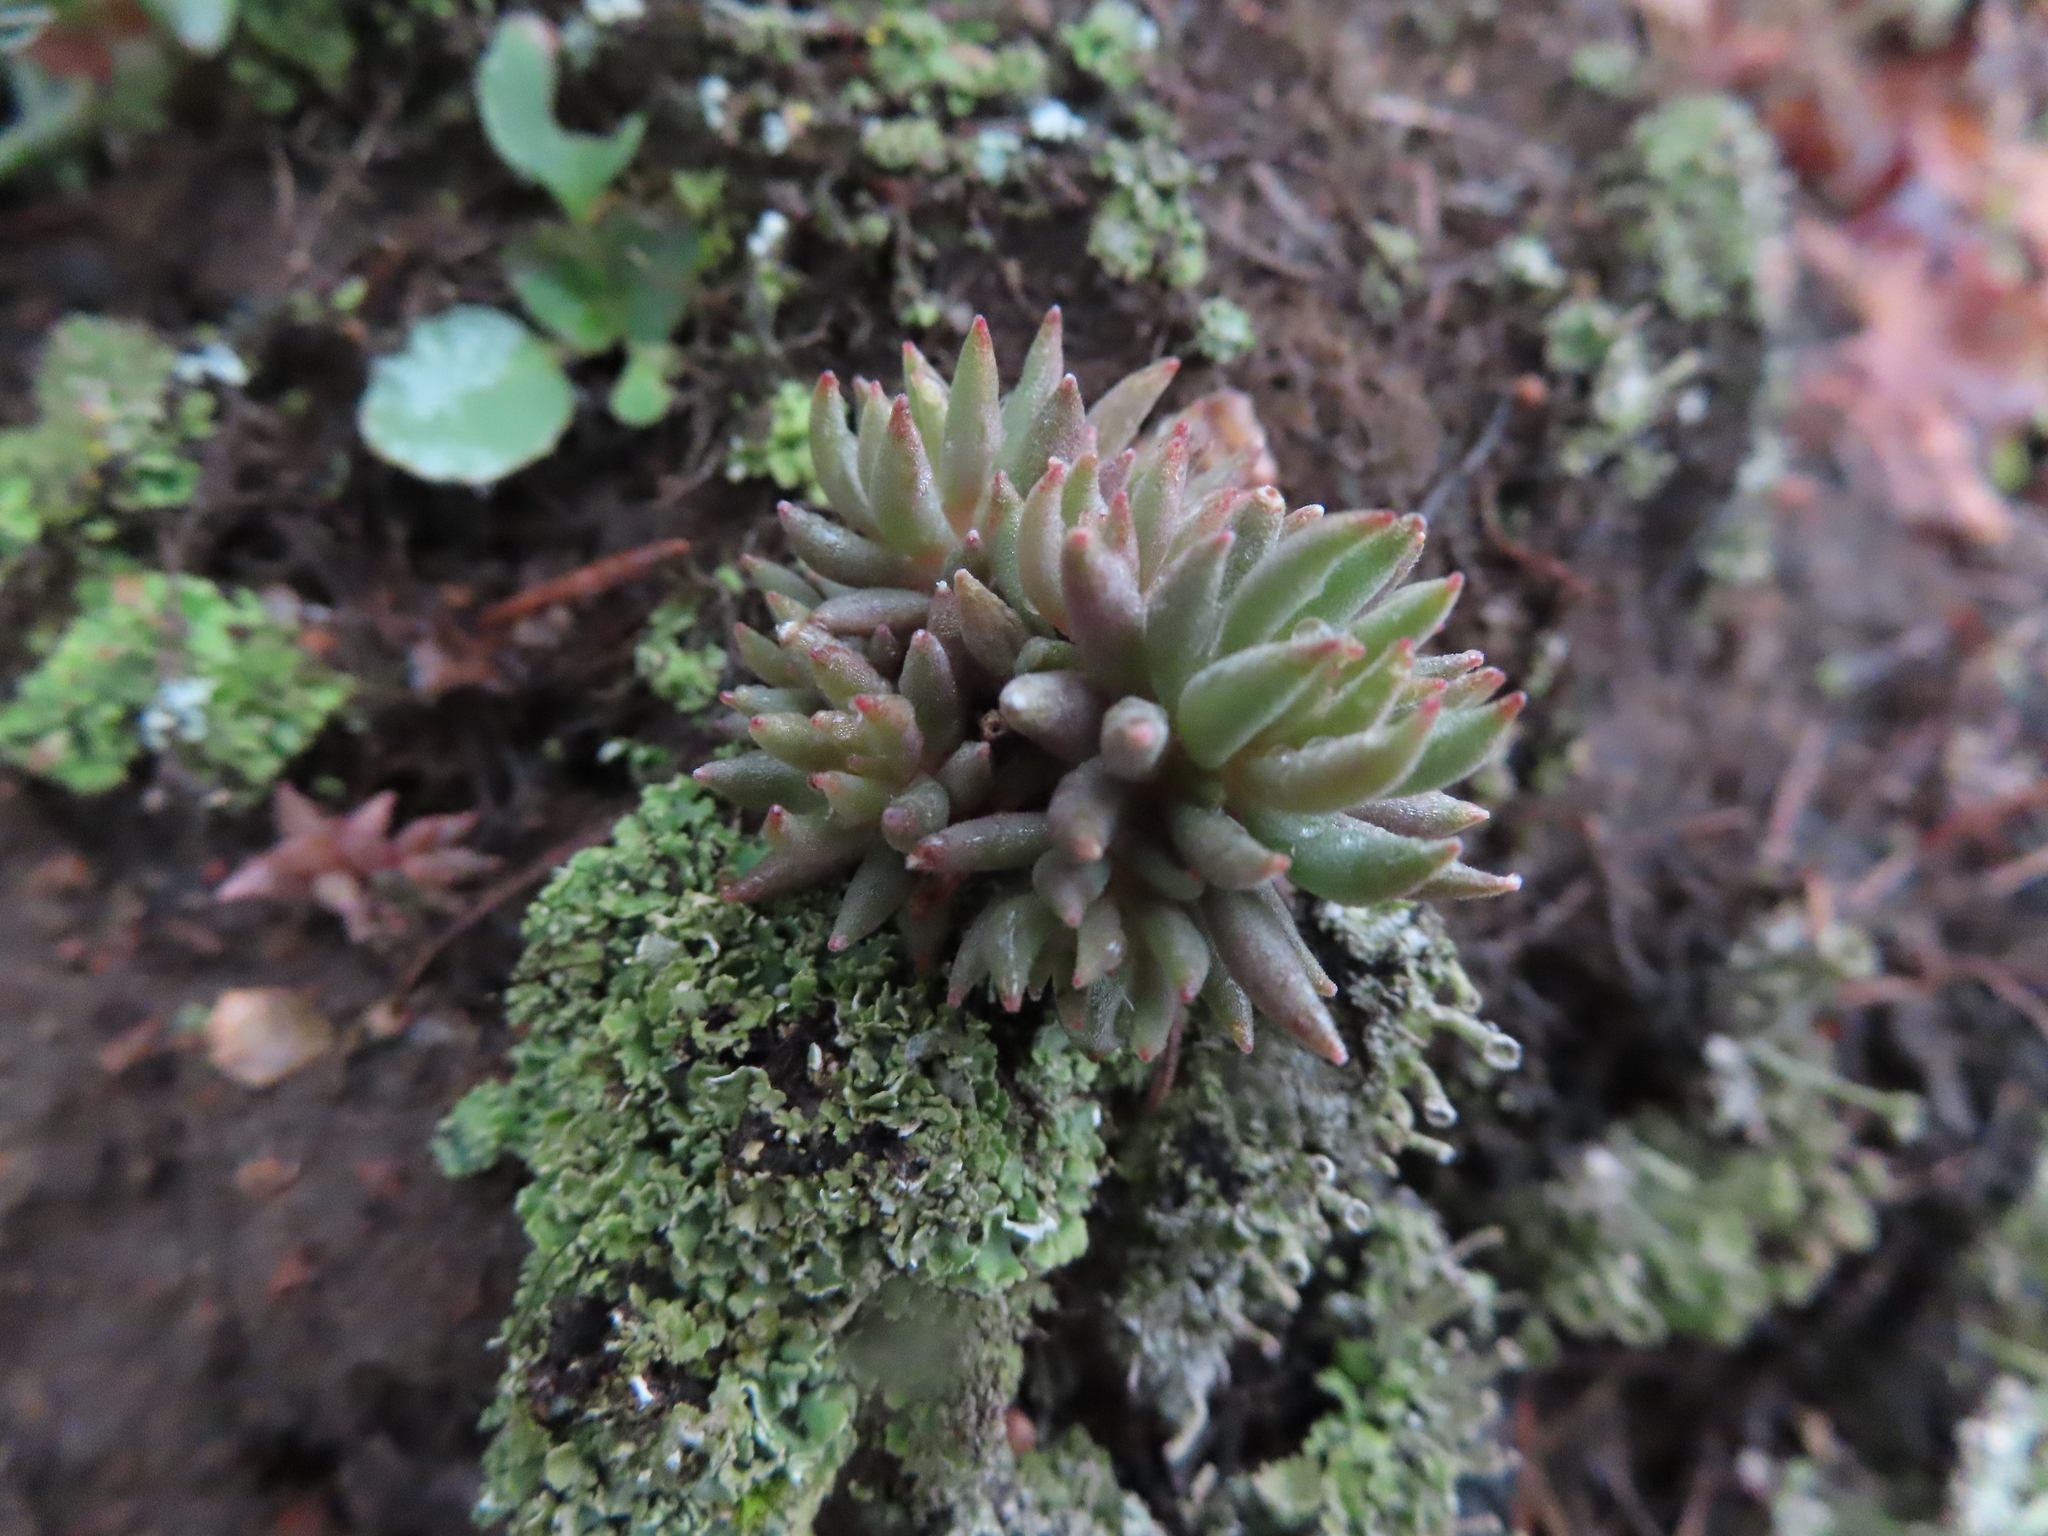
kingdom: Plantae
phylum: Tracheophyta
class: Magnoliopsida
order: Saxifragales
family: Crassulaceae
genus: Sedum
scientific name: Sedum lanceolatum
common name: Common stonecrop
